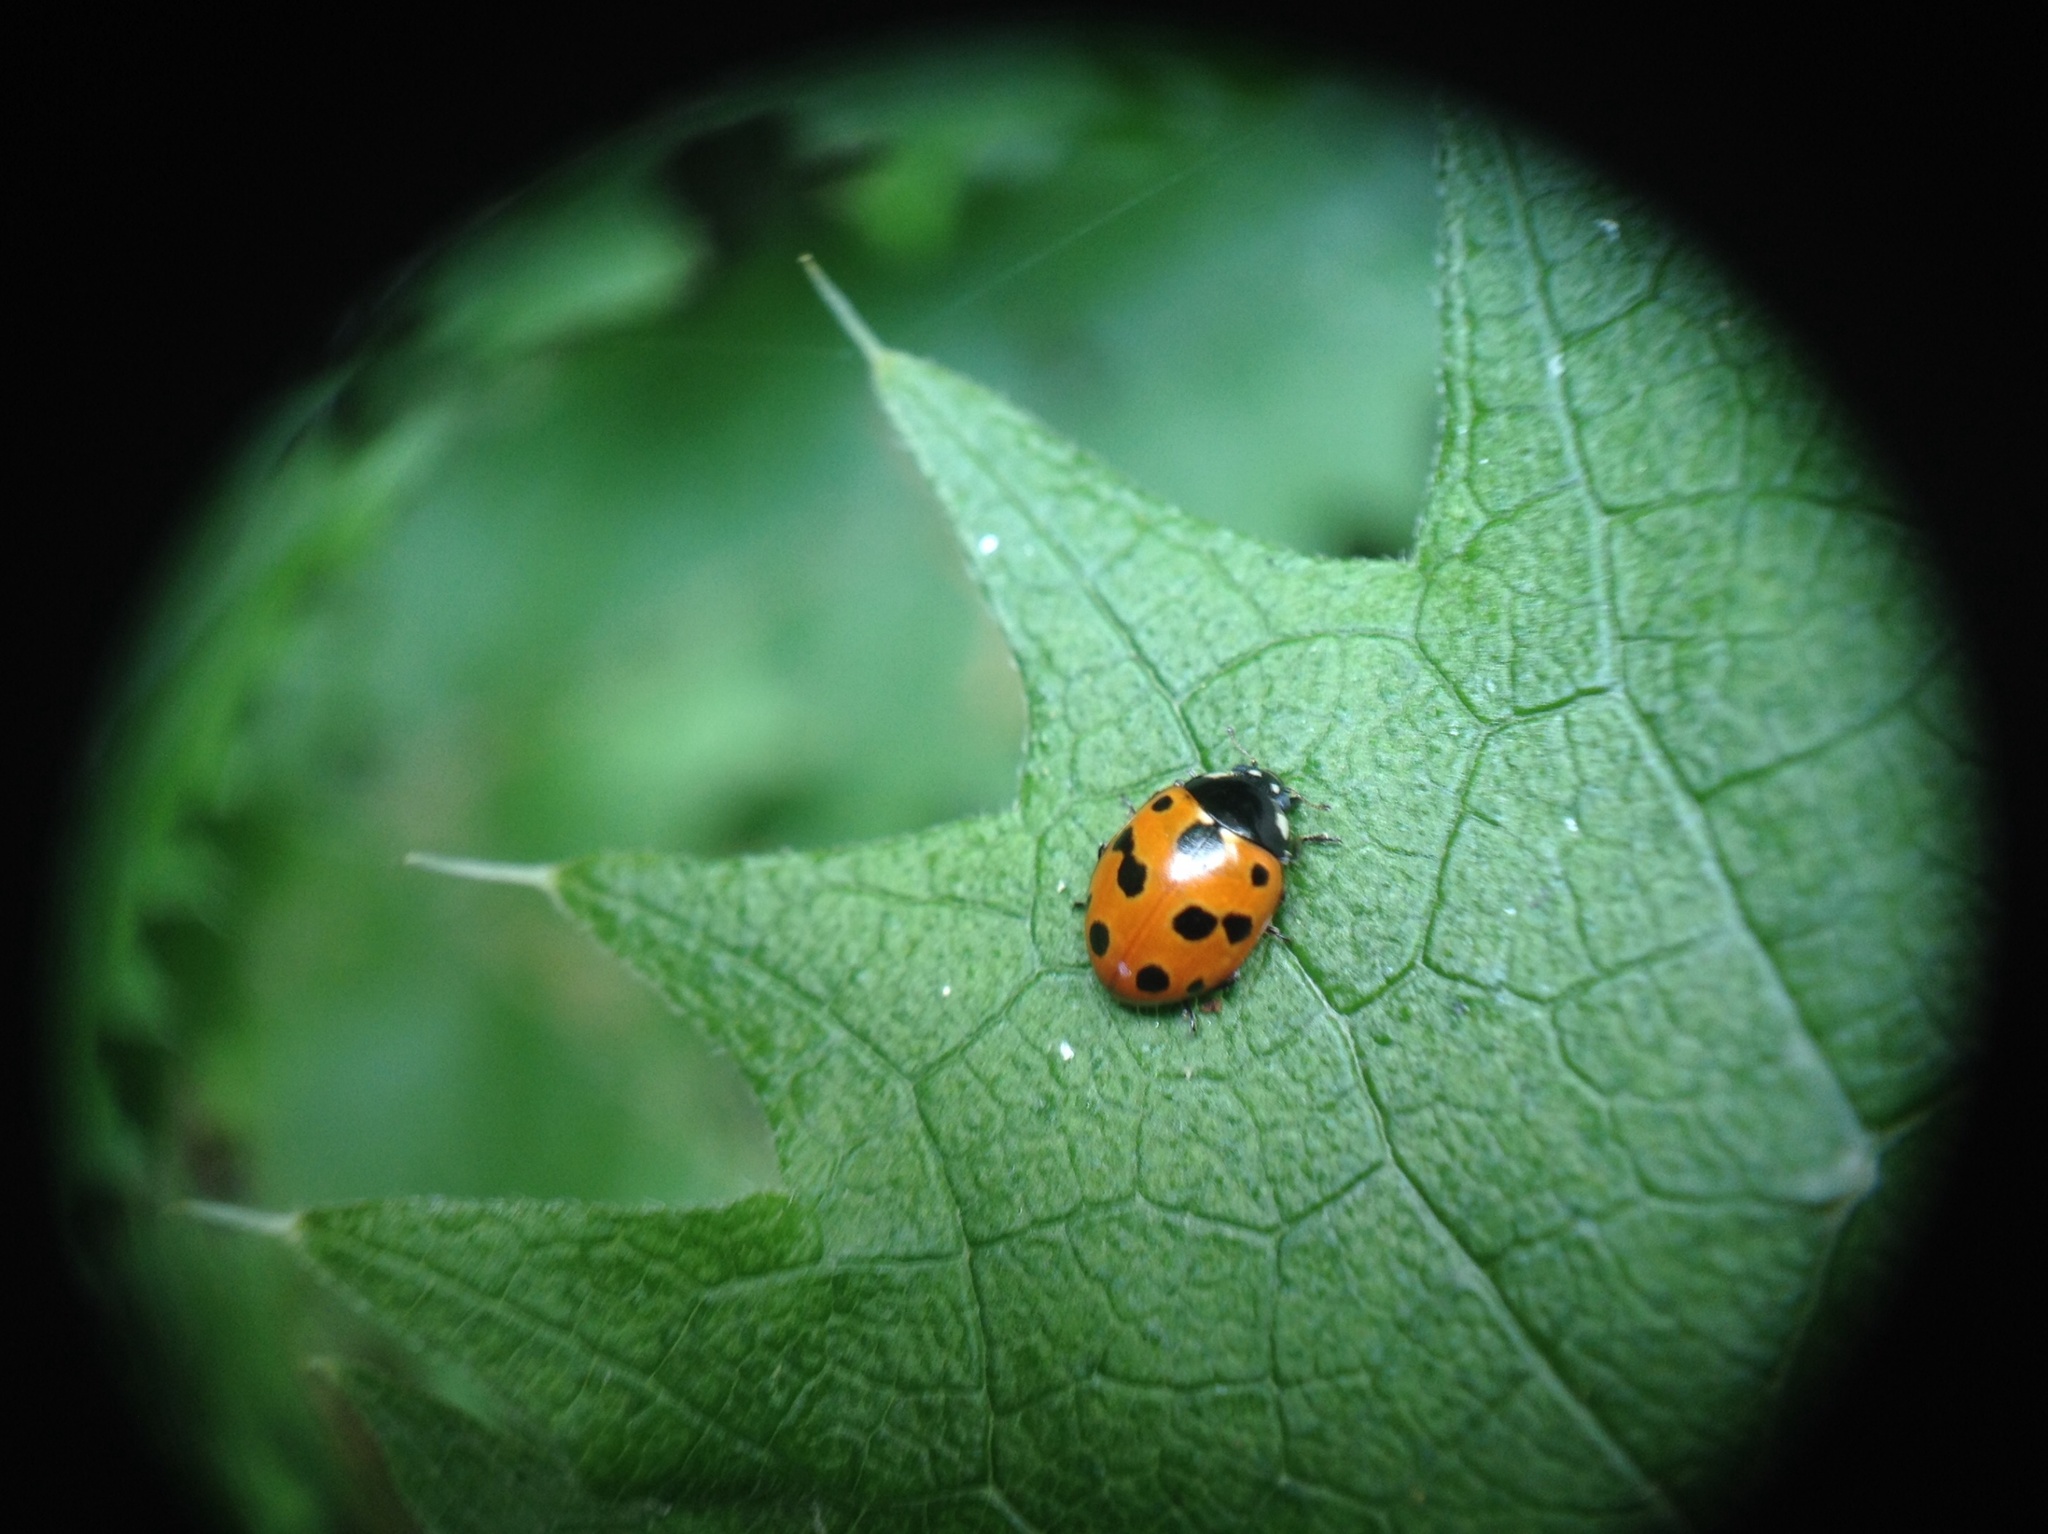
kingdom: Animalia
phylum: Arthropoda
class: Insecta
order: Coleoptera
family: Coccinellidae
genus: Coccinella
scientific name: Coccinella undecimpunctata
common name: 11-spot ladybird
